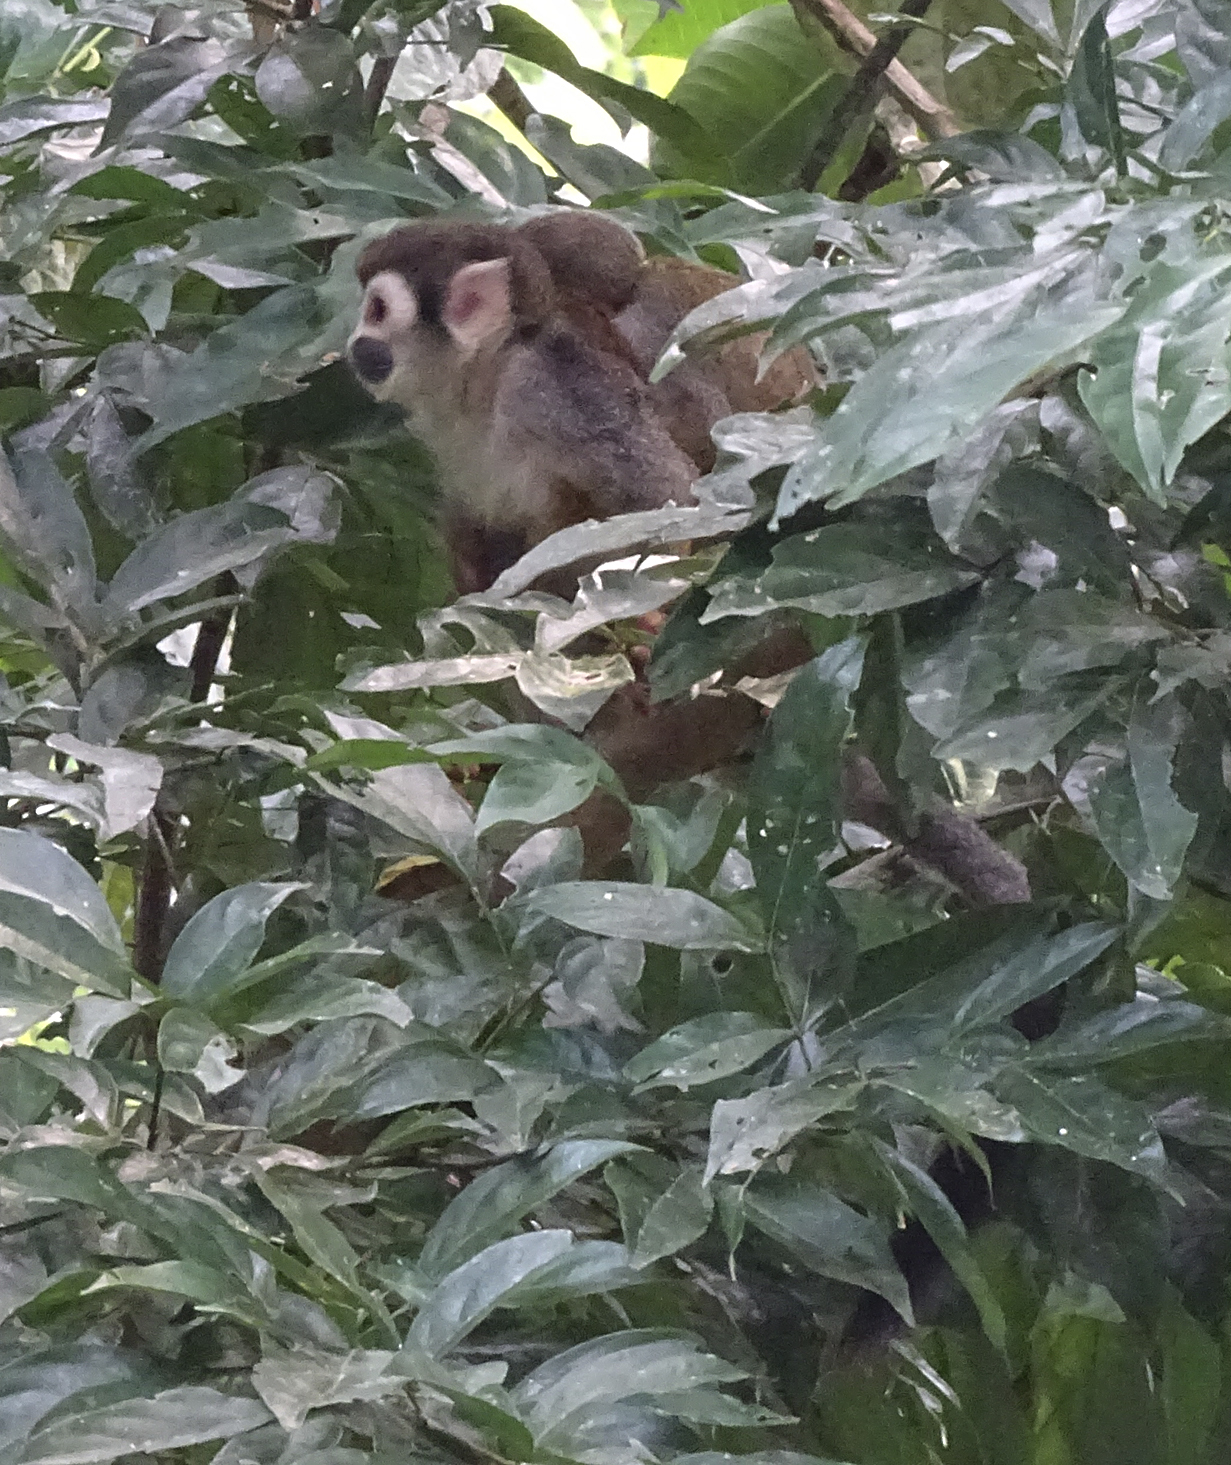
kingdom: Animalia
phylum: Chordata
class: Mammalia
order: Primates
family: Cebidae
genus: Saimiri
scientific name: Saimiri cassiquiarensis
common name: Humboldt’s squirrel monkey
